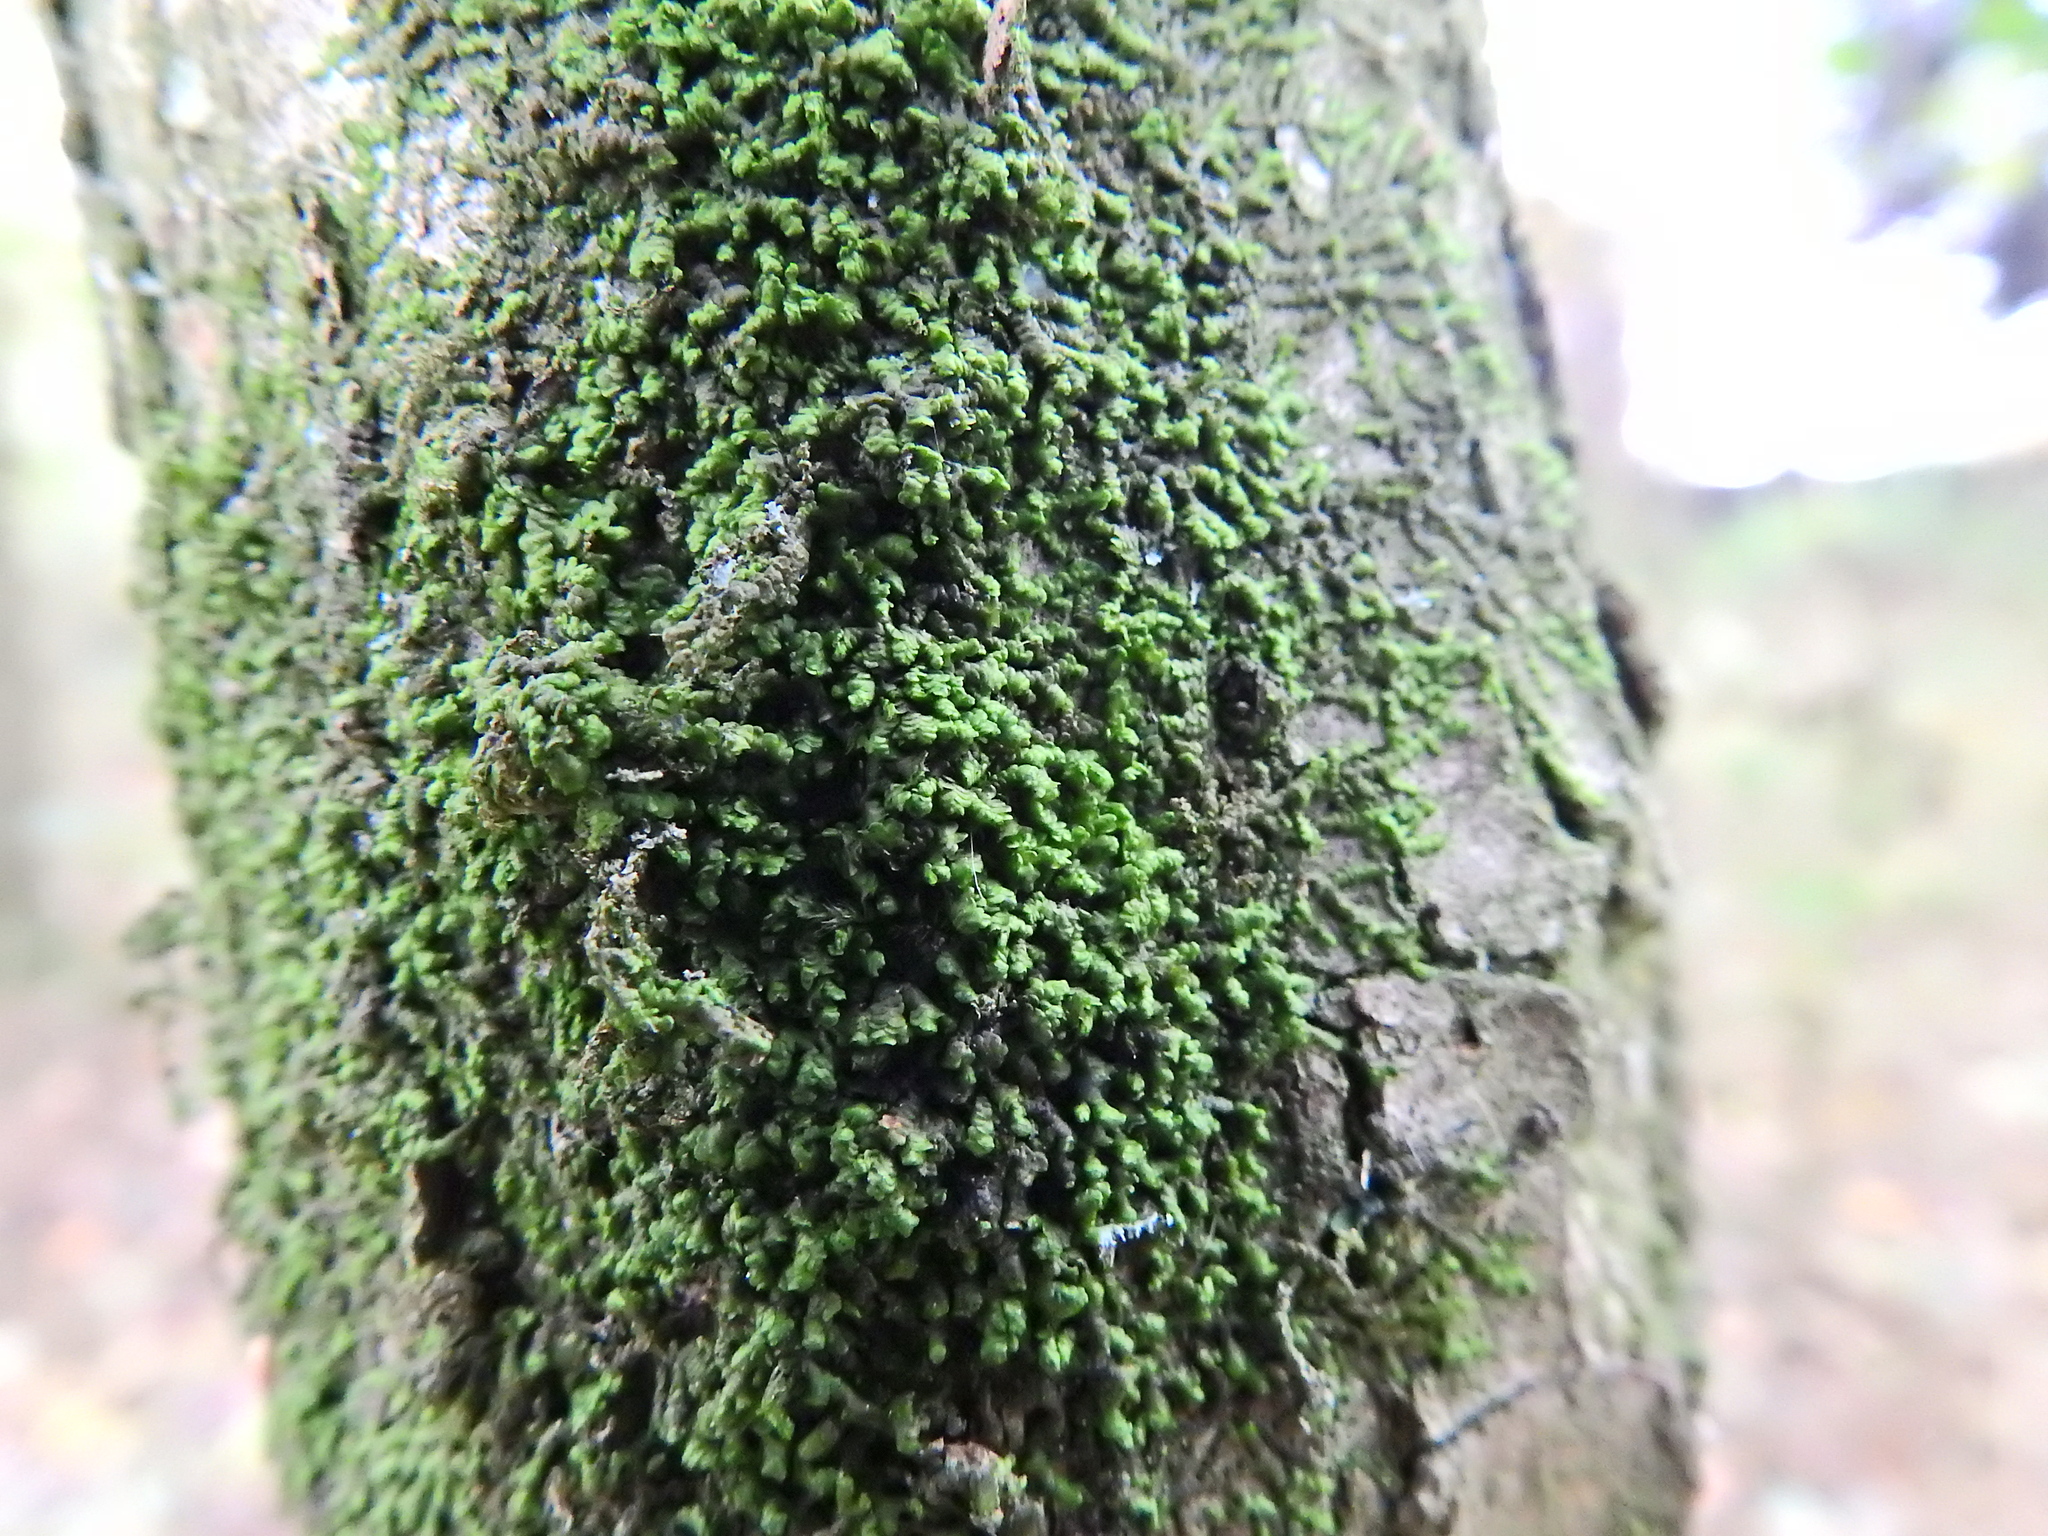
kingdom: Plantae
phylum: Marchantiophyta
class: Jungermanniopsida
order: Porellales
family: Frullaniaceae
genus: Frullania
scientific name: Frullania dilatata
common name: Dilated scalewort
